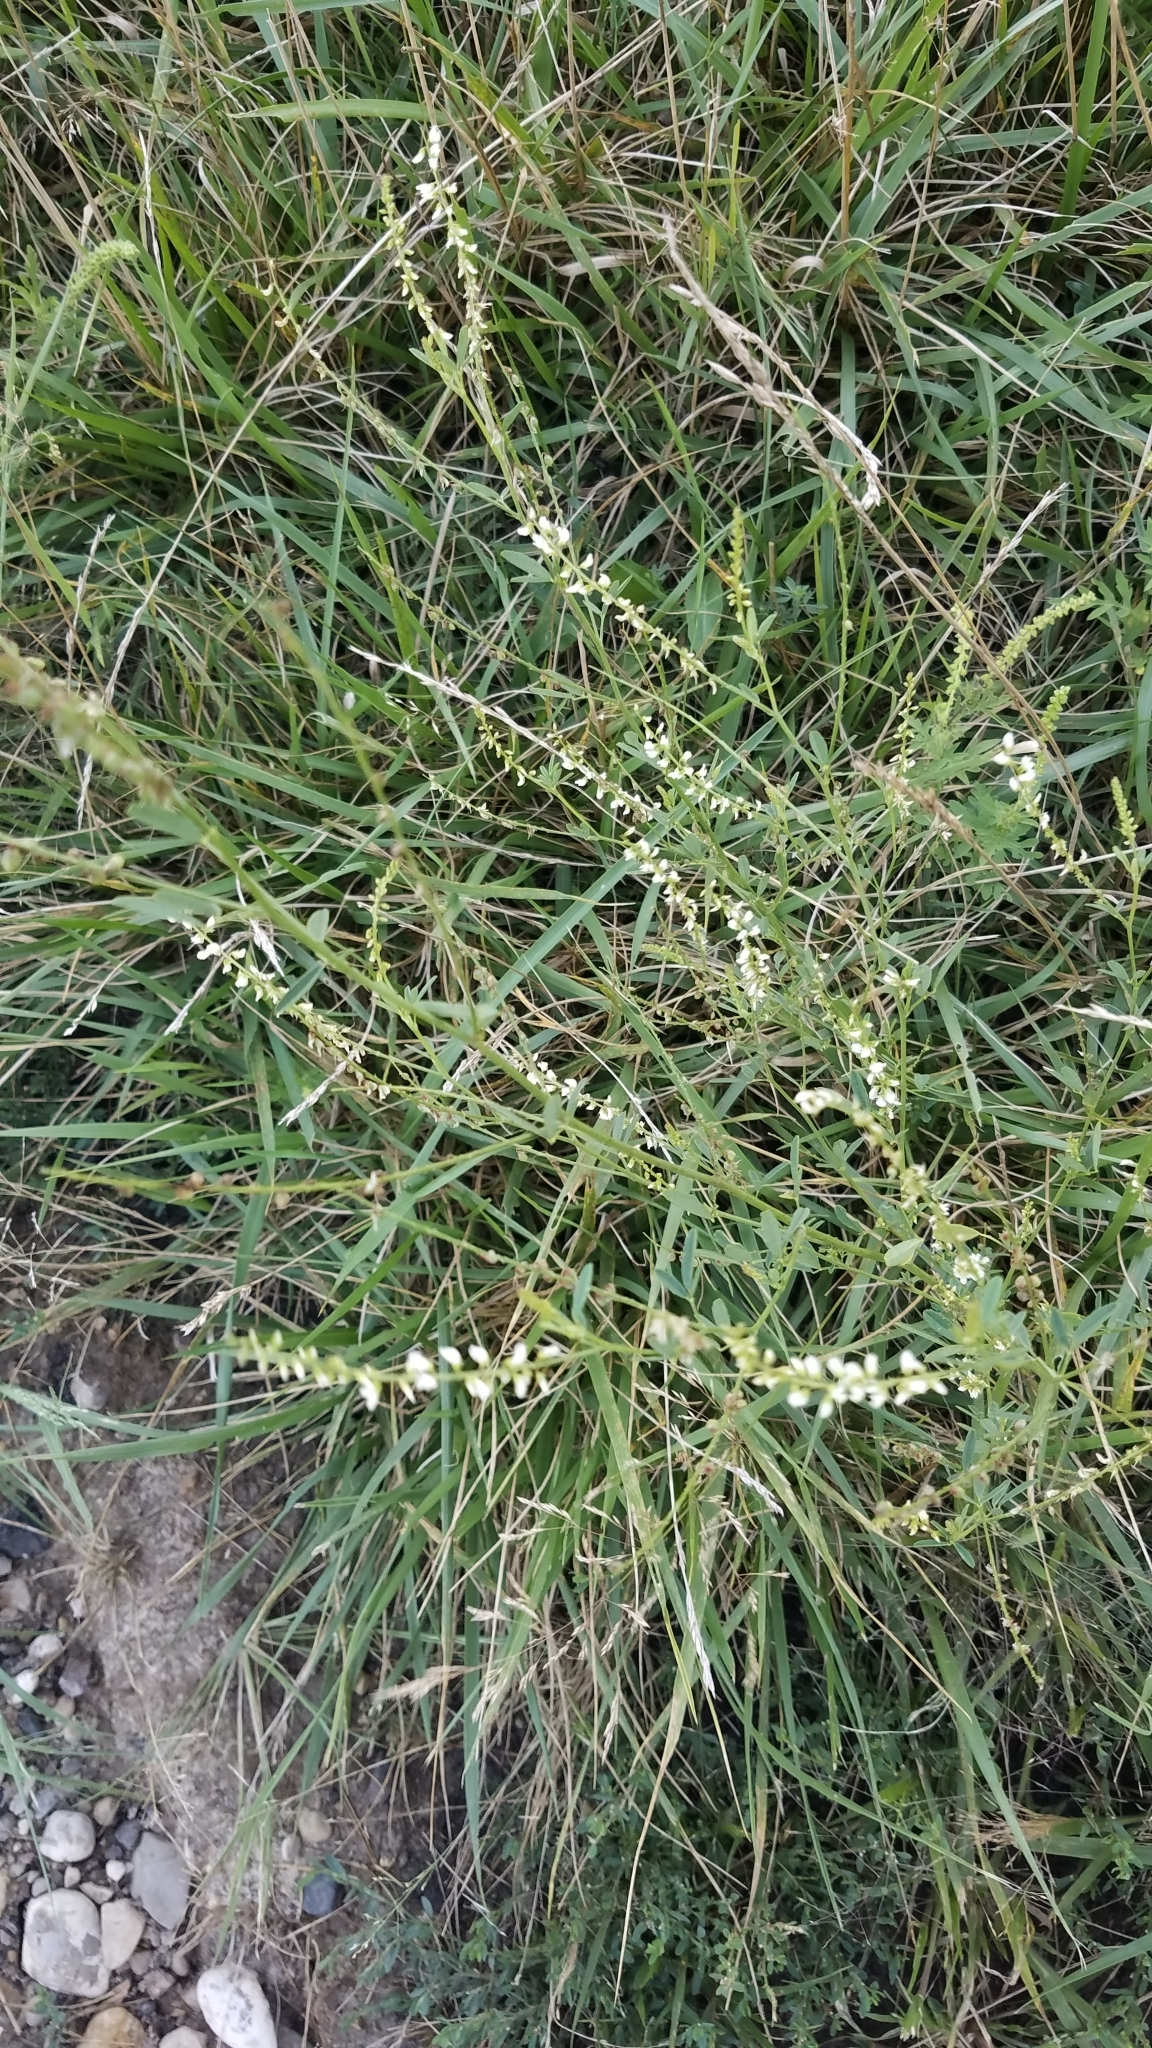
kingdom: Plantae
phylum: Tracheophyta
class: Magnoliopsida
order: Fabales
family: Fabaceae
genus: Melilotus
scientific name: Melilotus albus
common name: White melilot
